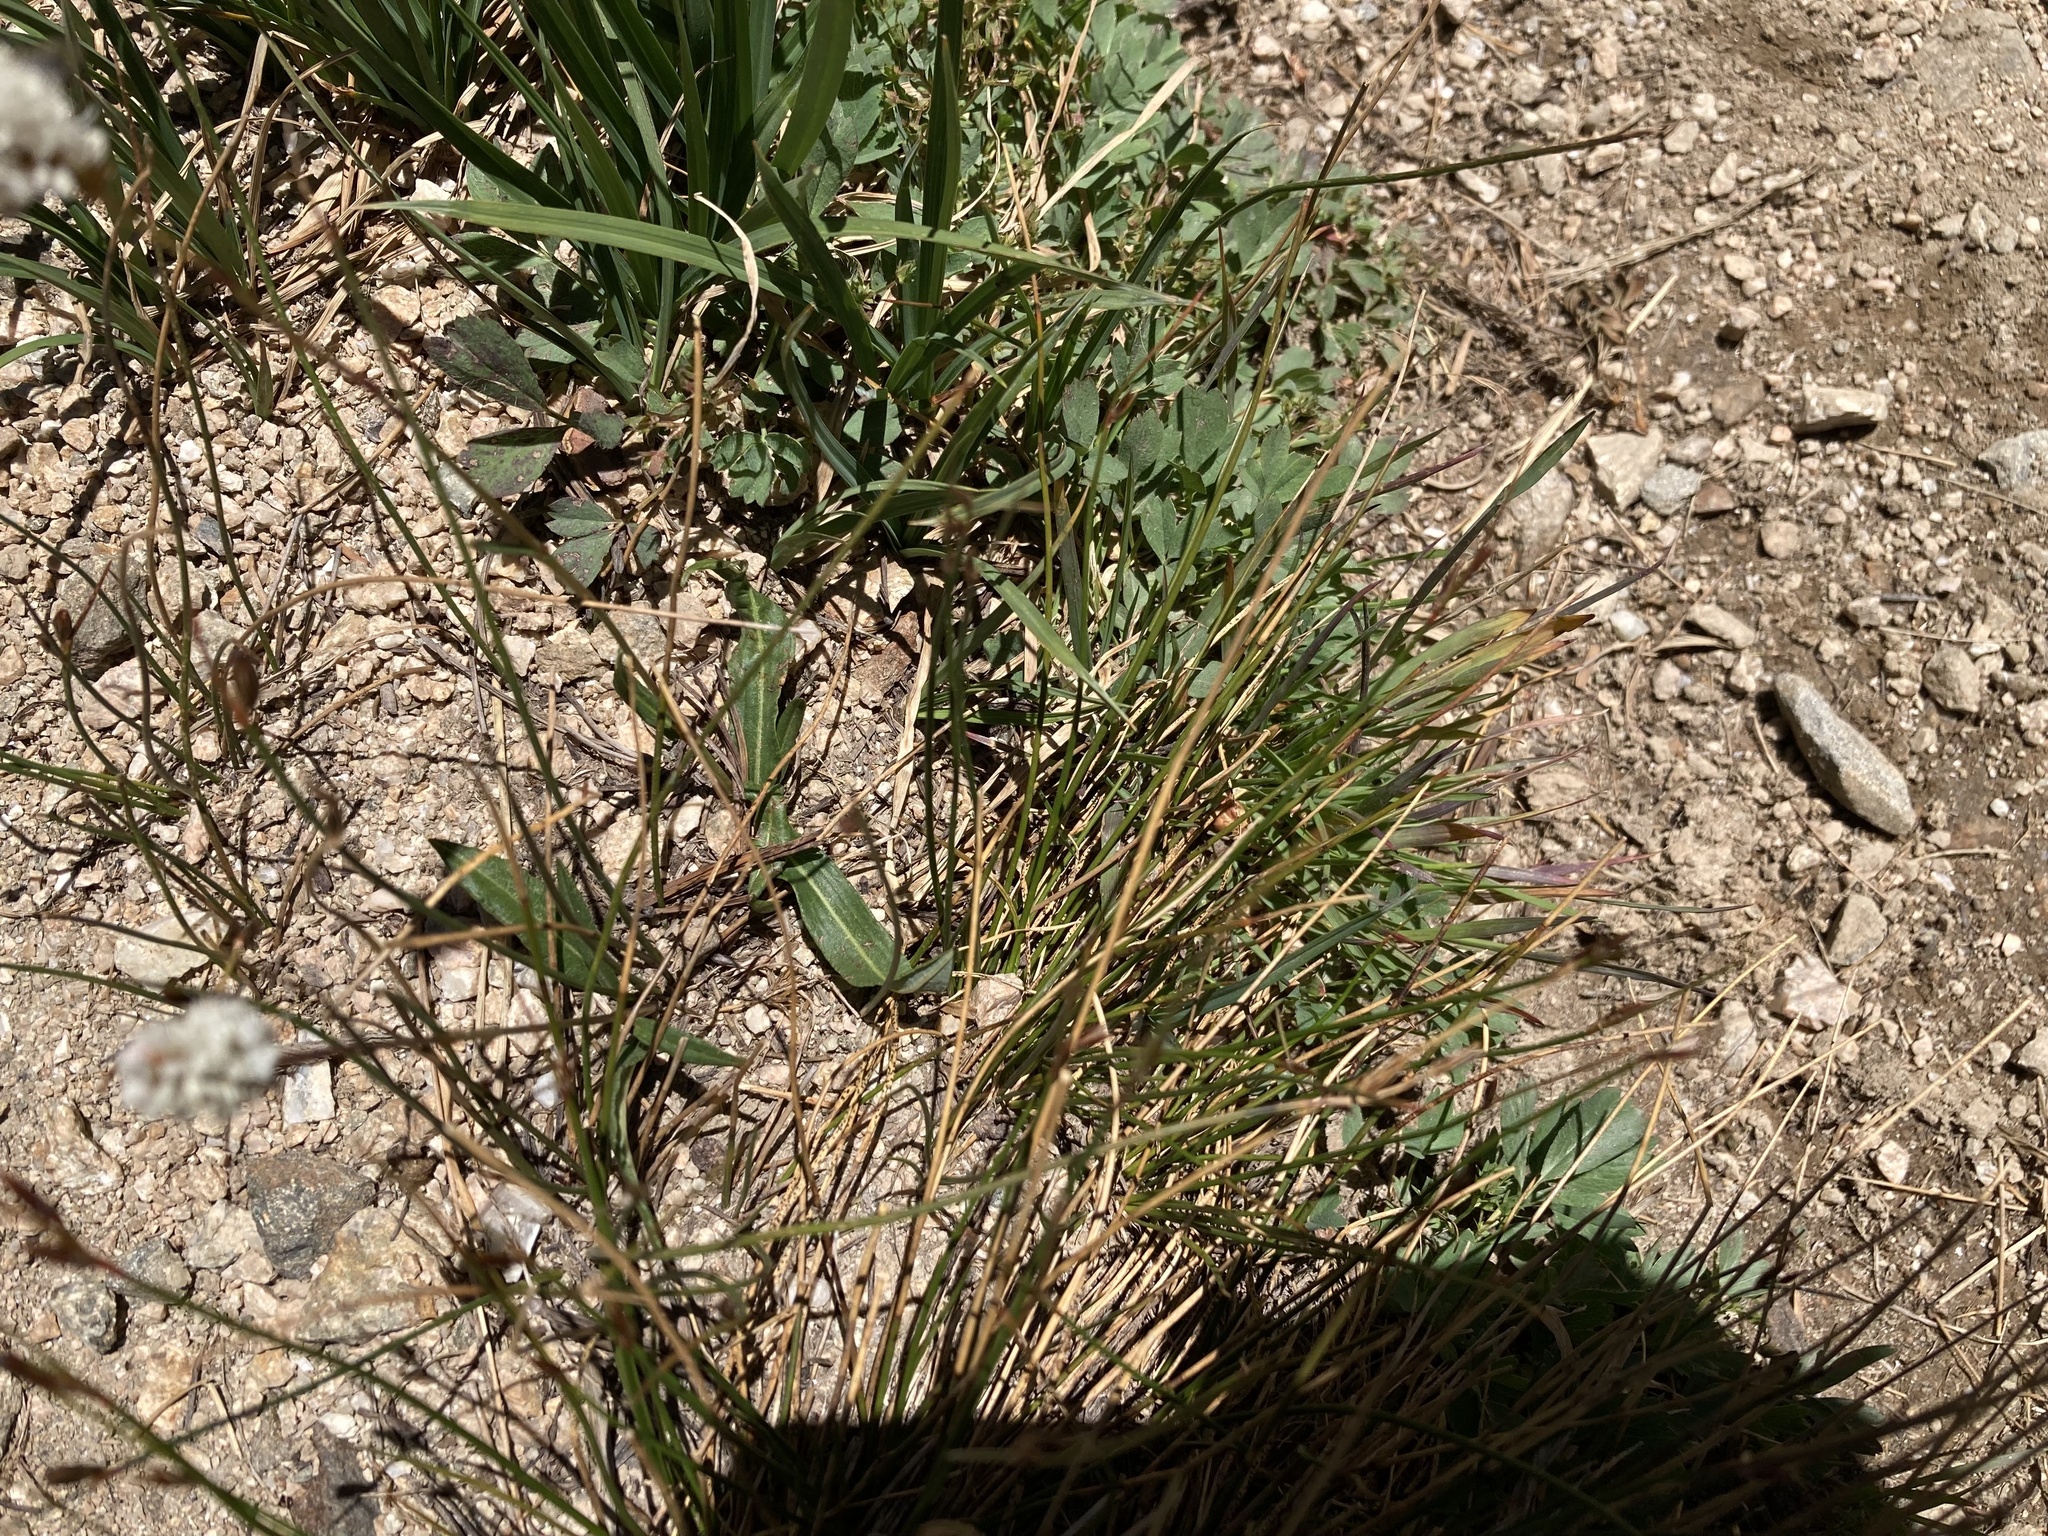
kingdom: Plantae
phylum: Tracheophyta
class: Magnoliopsida
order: Caryophyllales
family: Polygonaceae
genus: Bistorta
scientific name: Bistorta bistortoides
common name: American bistort
